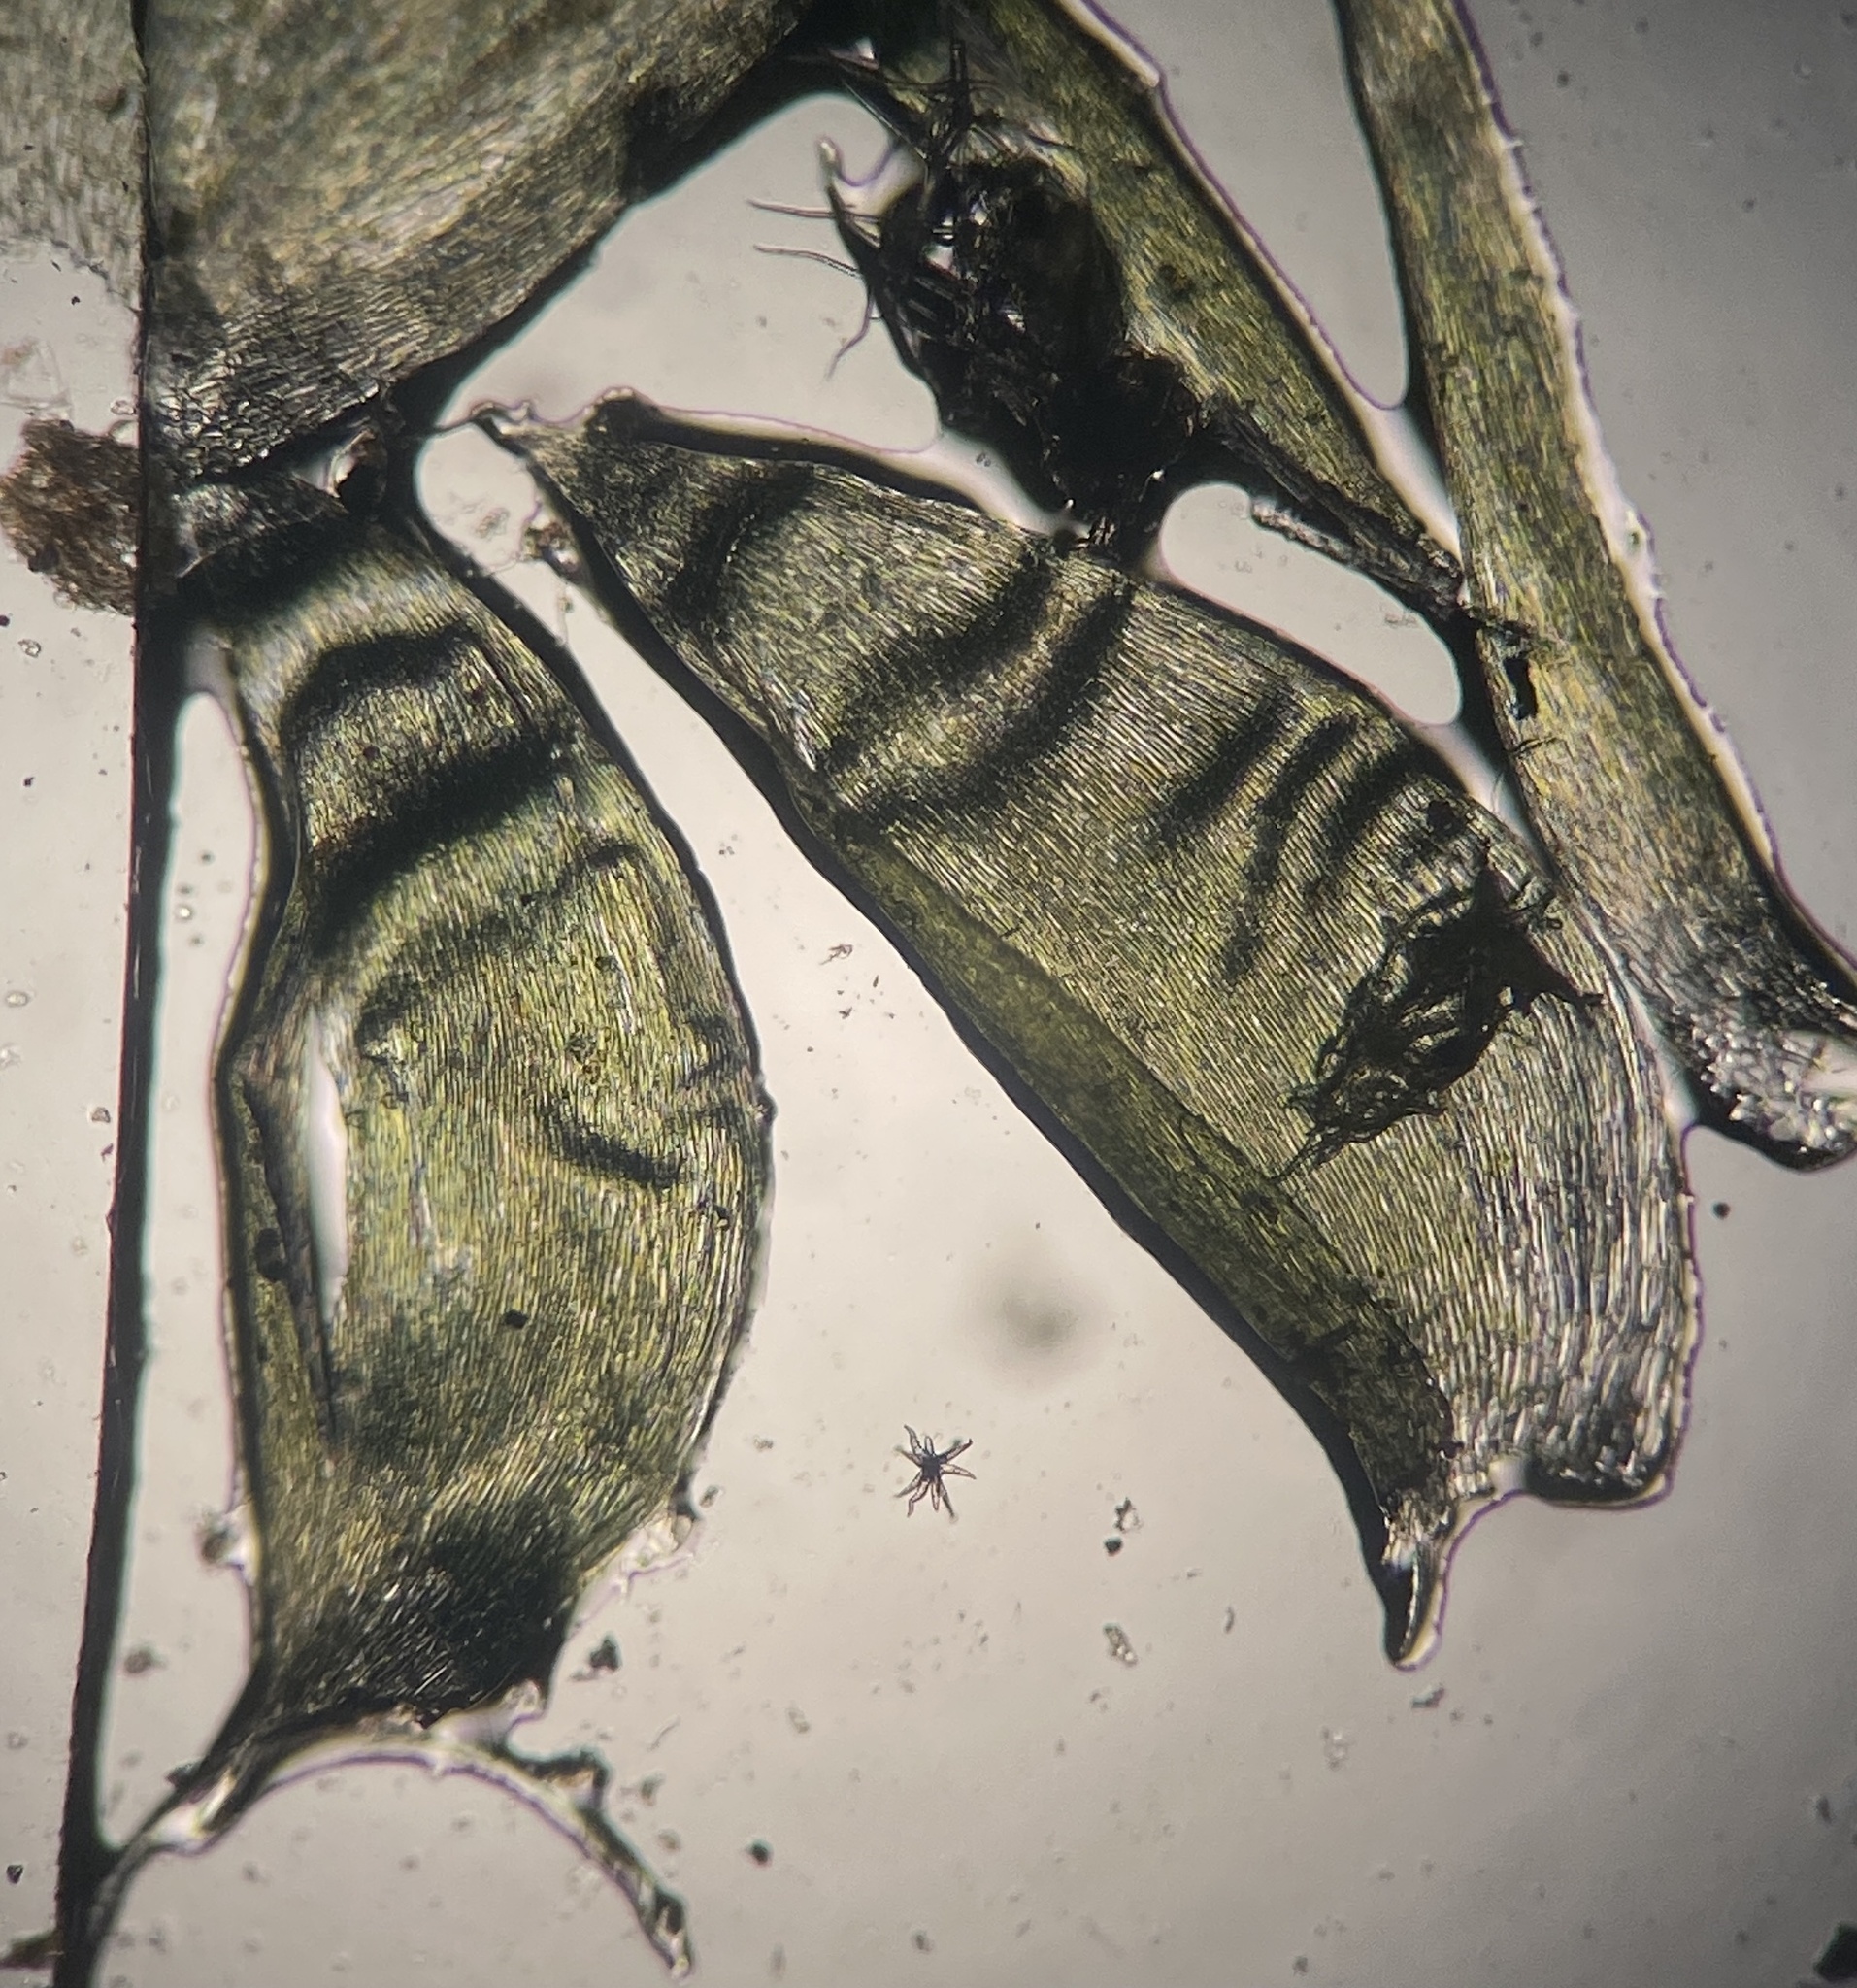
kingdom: Plantae
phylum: Bryophyta
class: Bryopsida
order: Hypnales
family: Plagiotheciaceae
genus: Plagiothecium
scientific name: Plagiothecium denticulatum
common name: Dented silk moss
